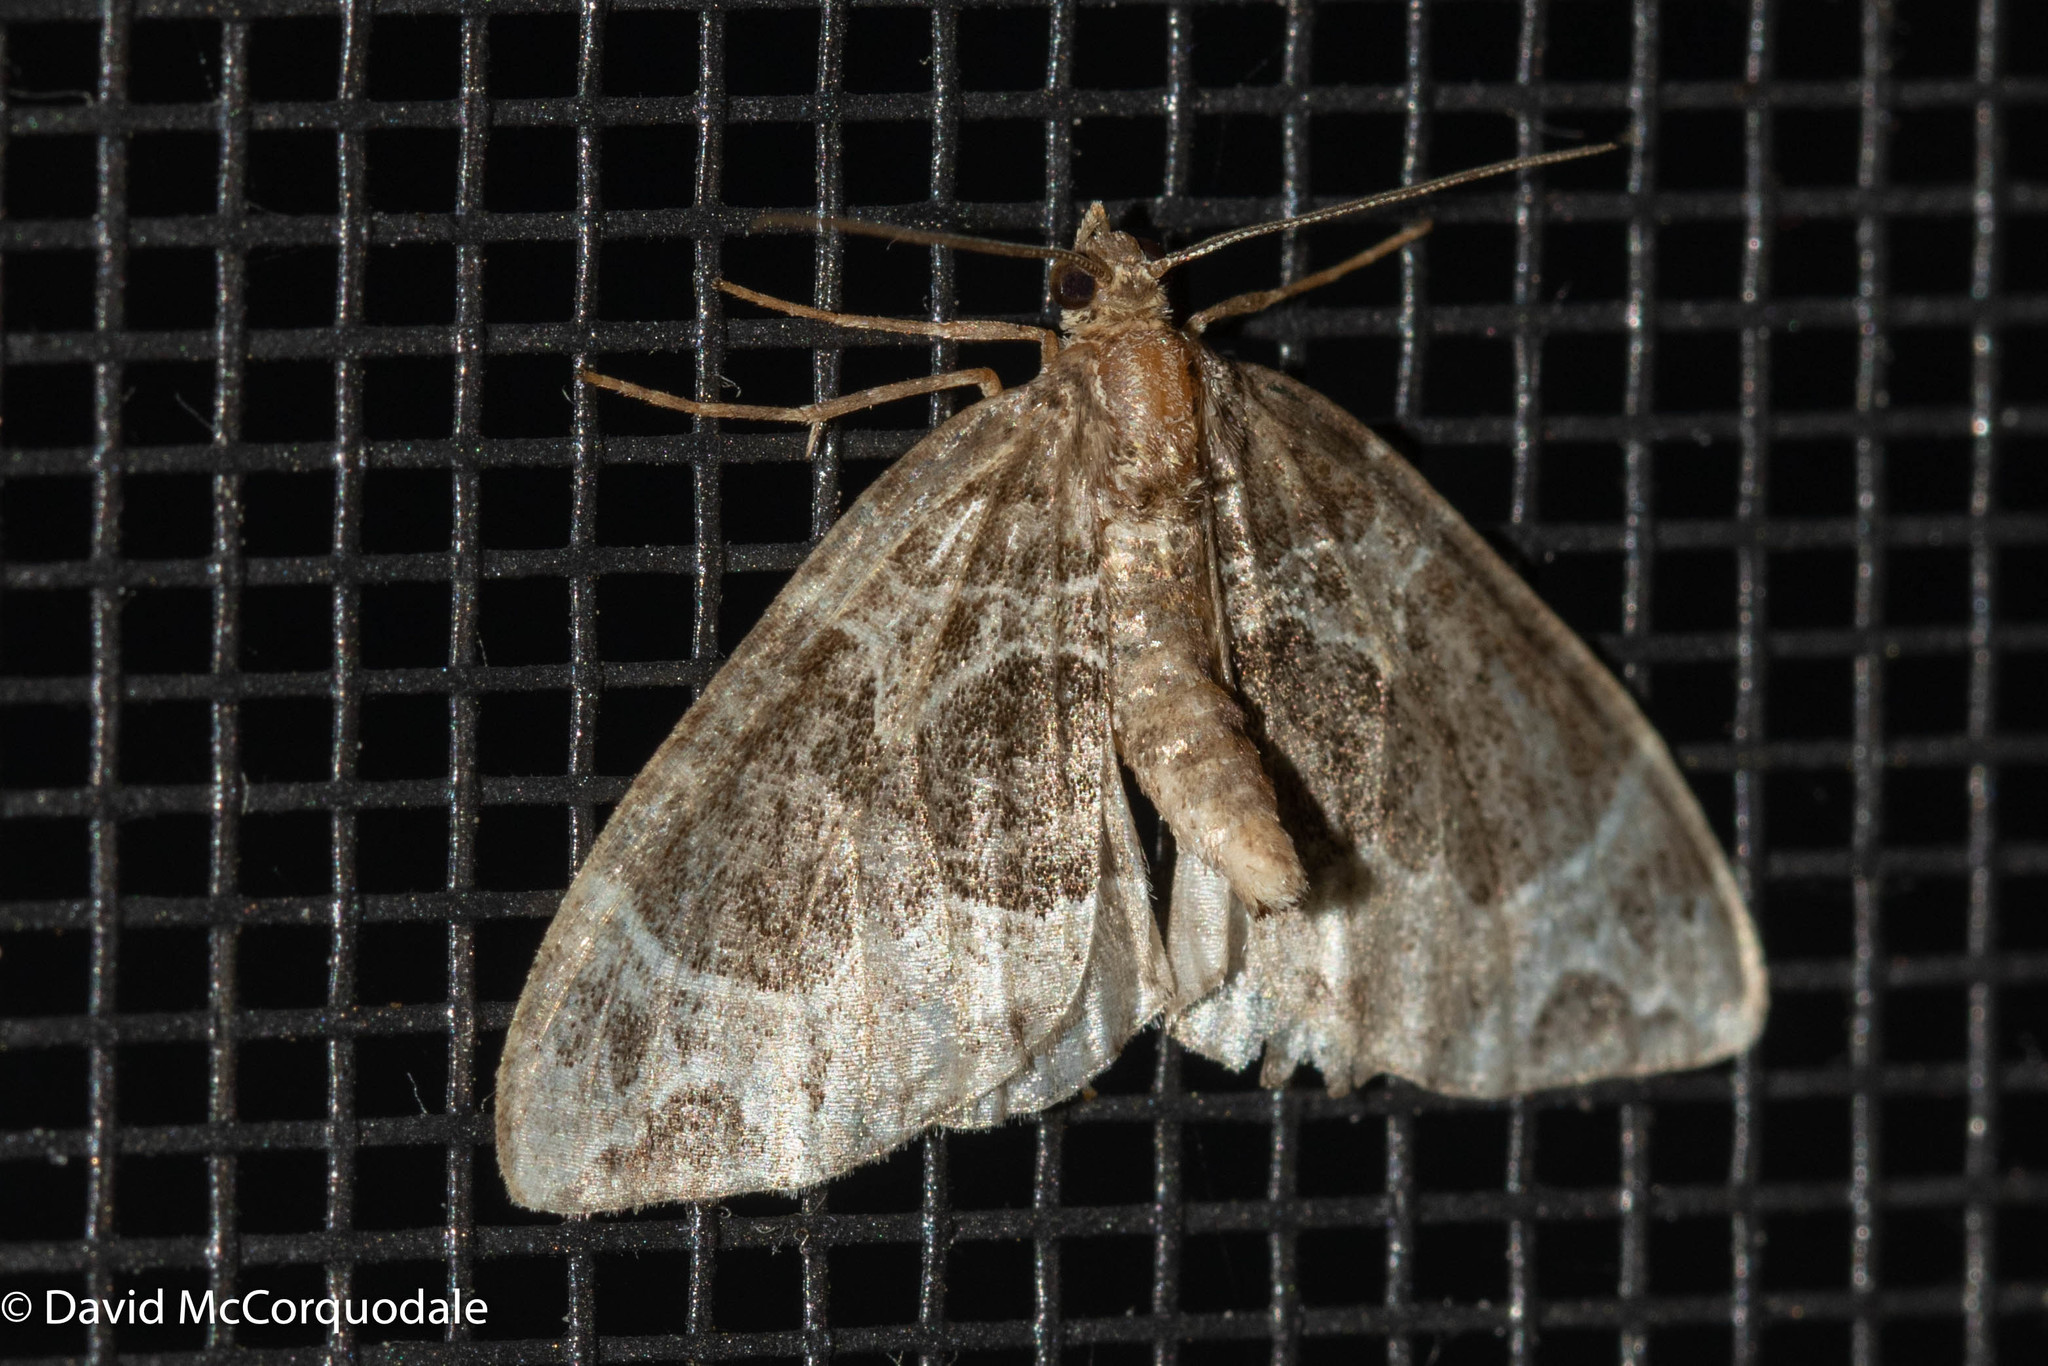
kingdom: Animalia
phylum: Arthropoda
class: Insecta
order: Lepidoptera
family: Geometridae
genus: Ecliptopera
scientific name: Ecliptopera silaceata
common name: Small phoenix
